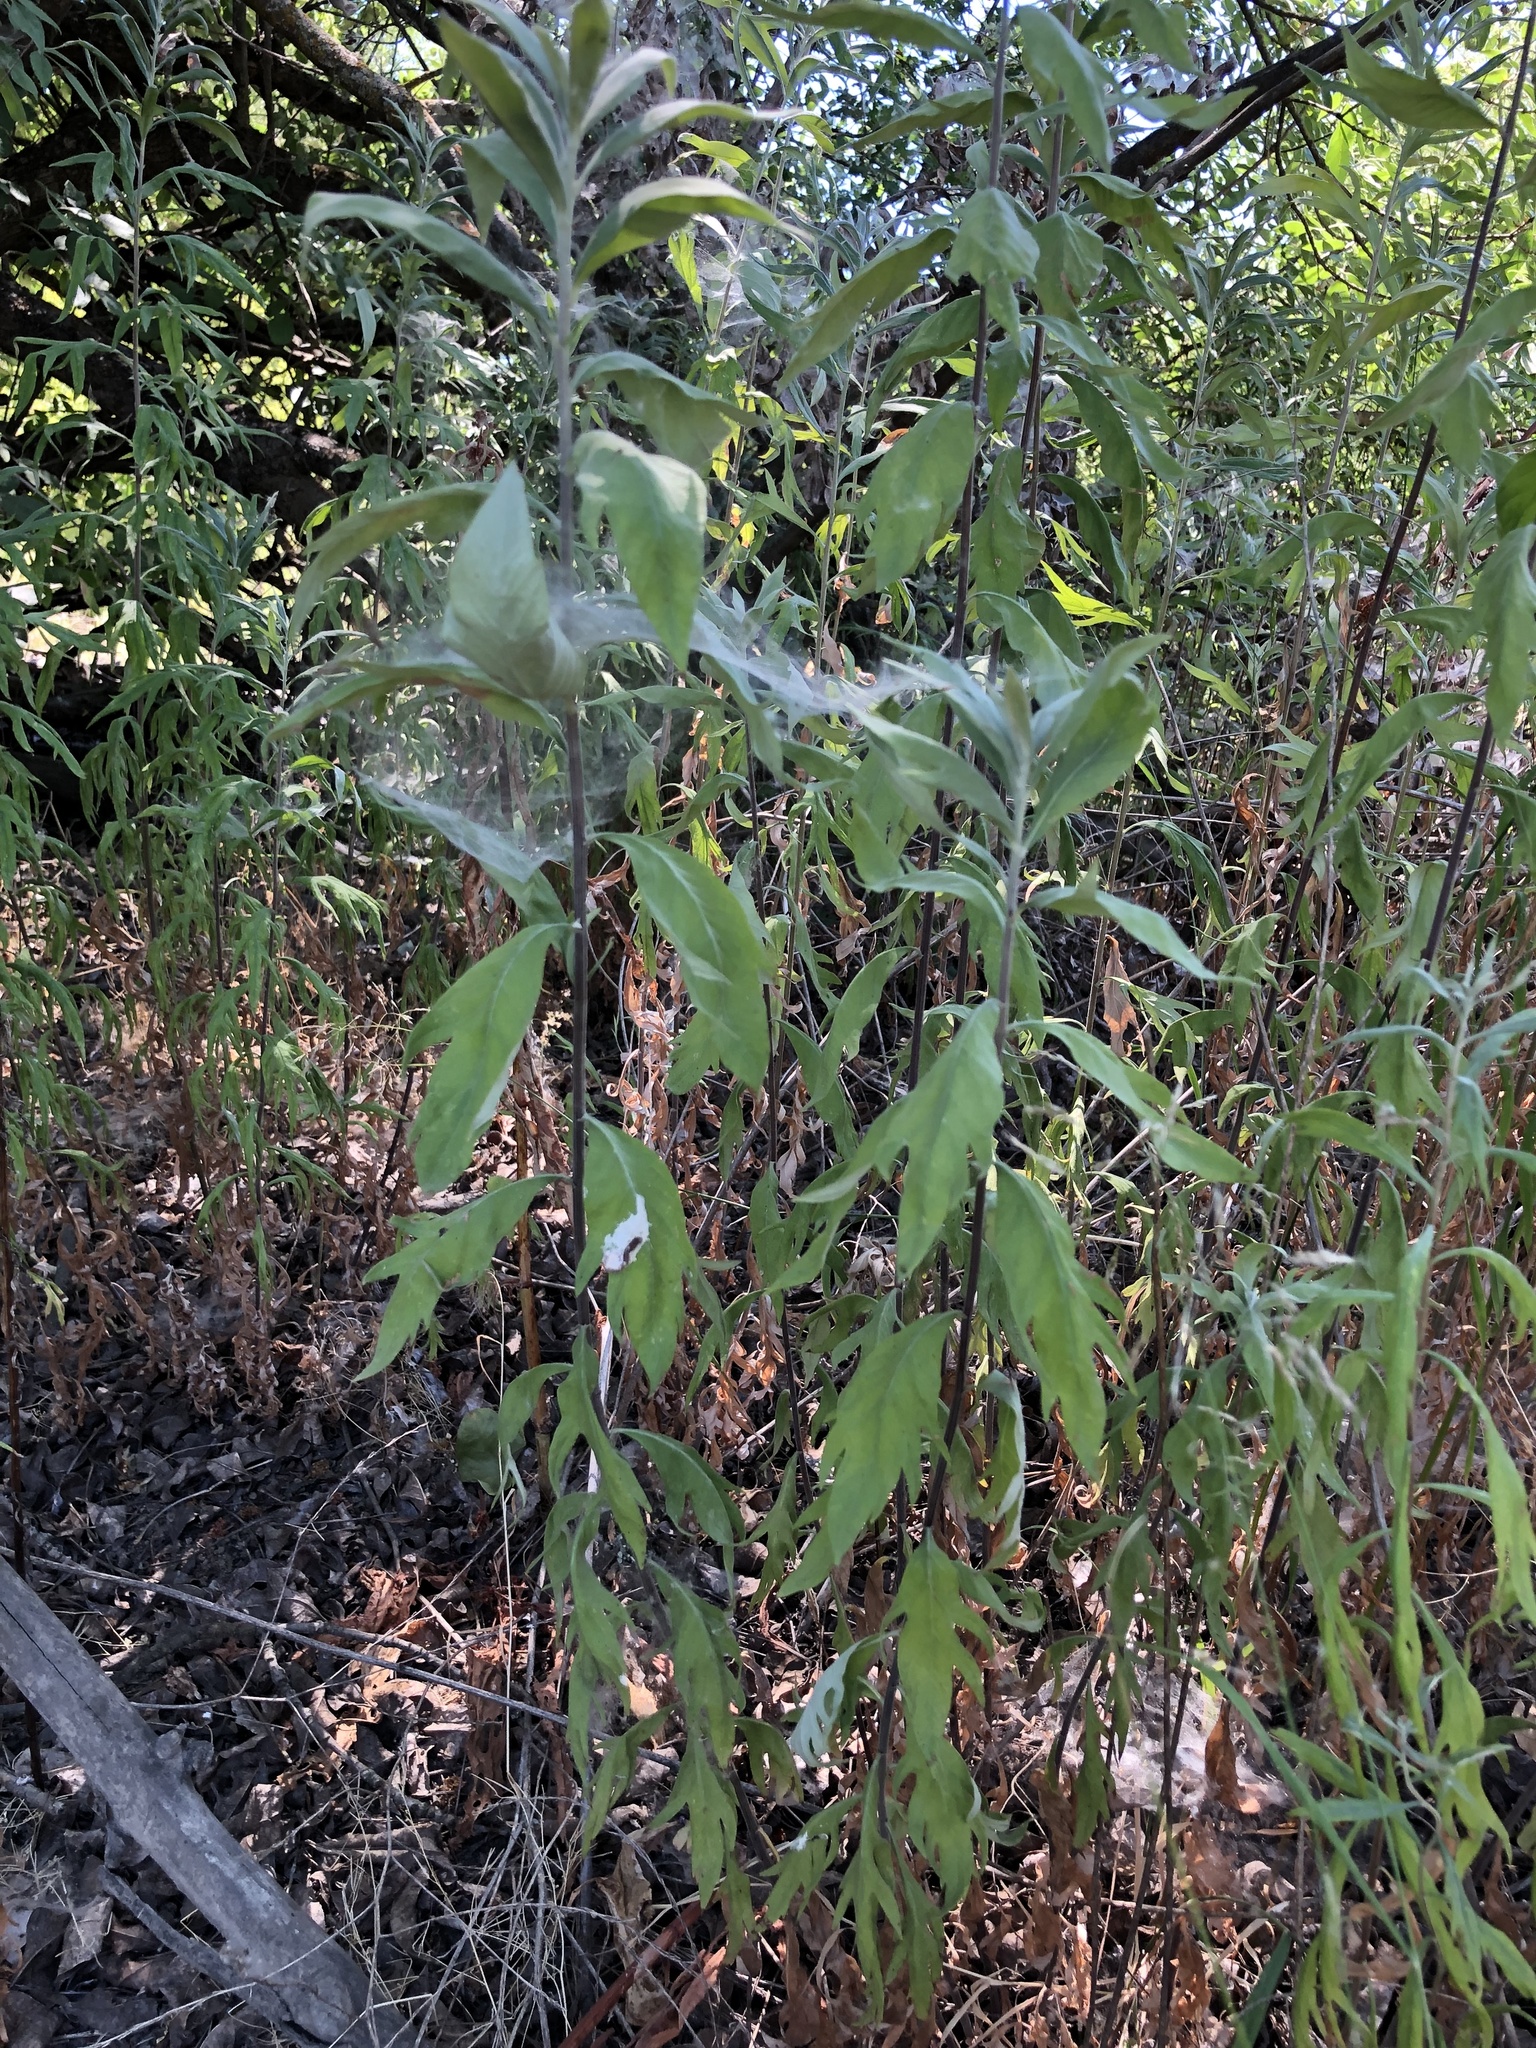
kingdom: Plantae
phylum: Tracheophyta
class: Magnoliopsida
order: Asterales
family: Asteraceae
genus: Artemisia
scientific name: Artemisia douglasiana
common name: Northwest mugwort
